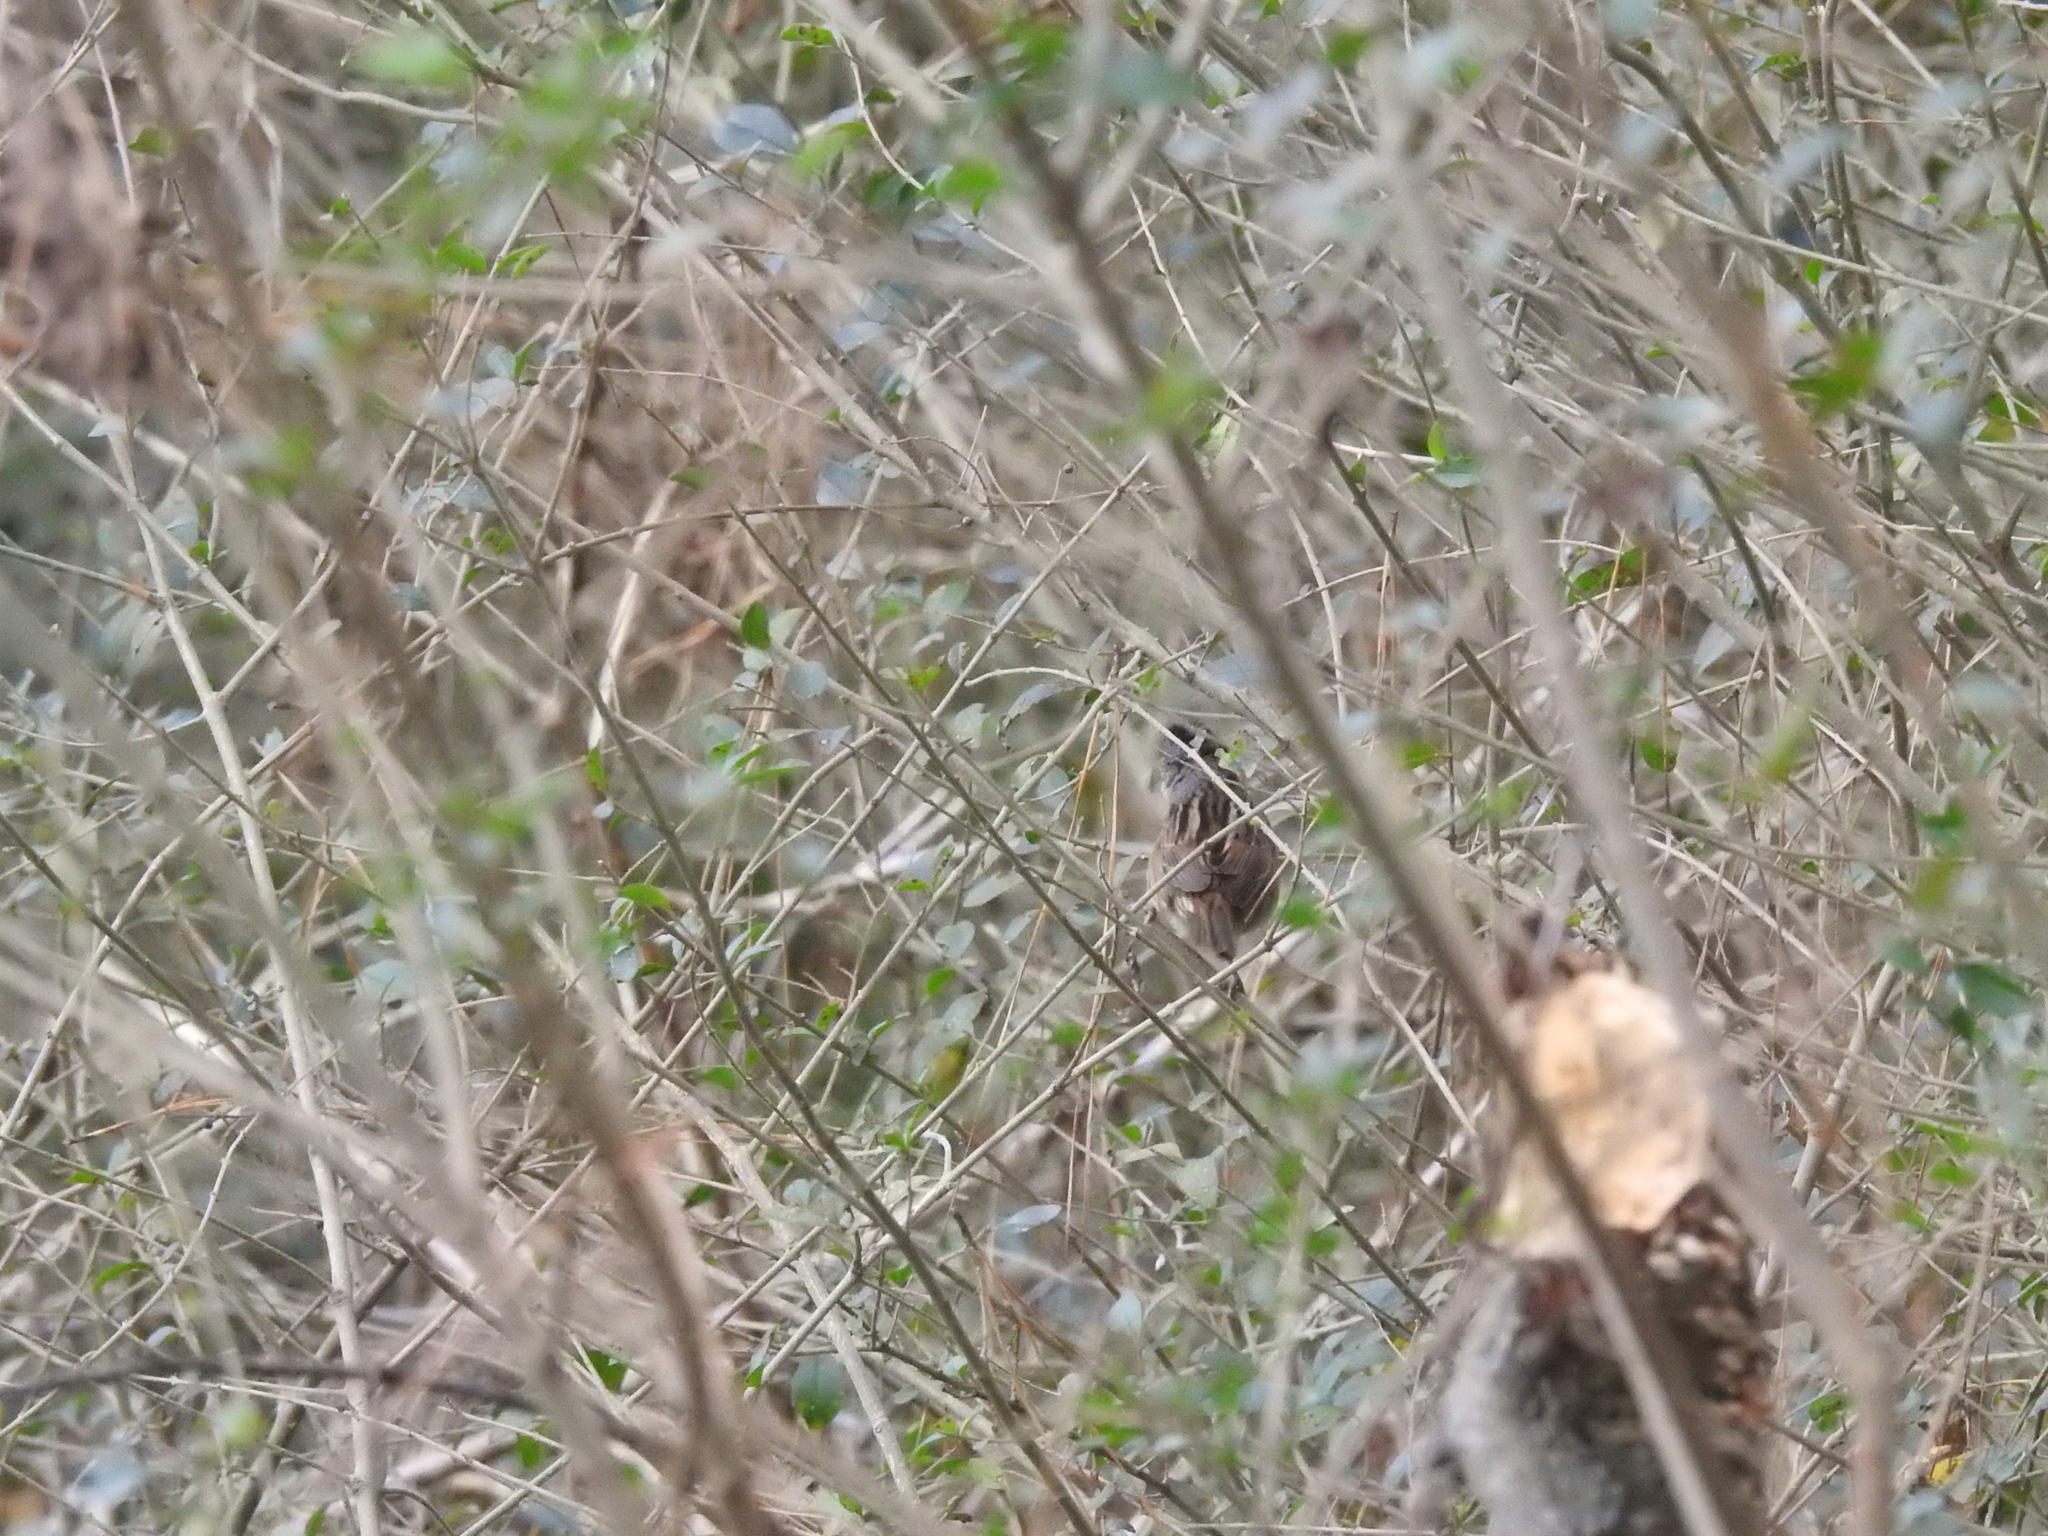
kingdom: Animalia
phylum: Chordata
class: Aves
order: Passeriformes
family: Passerellidae
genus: Melospiza
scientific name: Melospiza melodia
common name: Song sparrow
